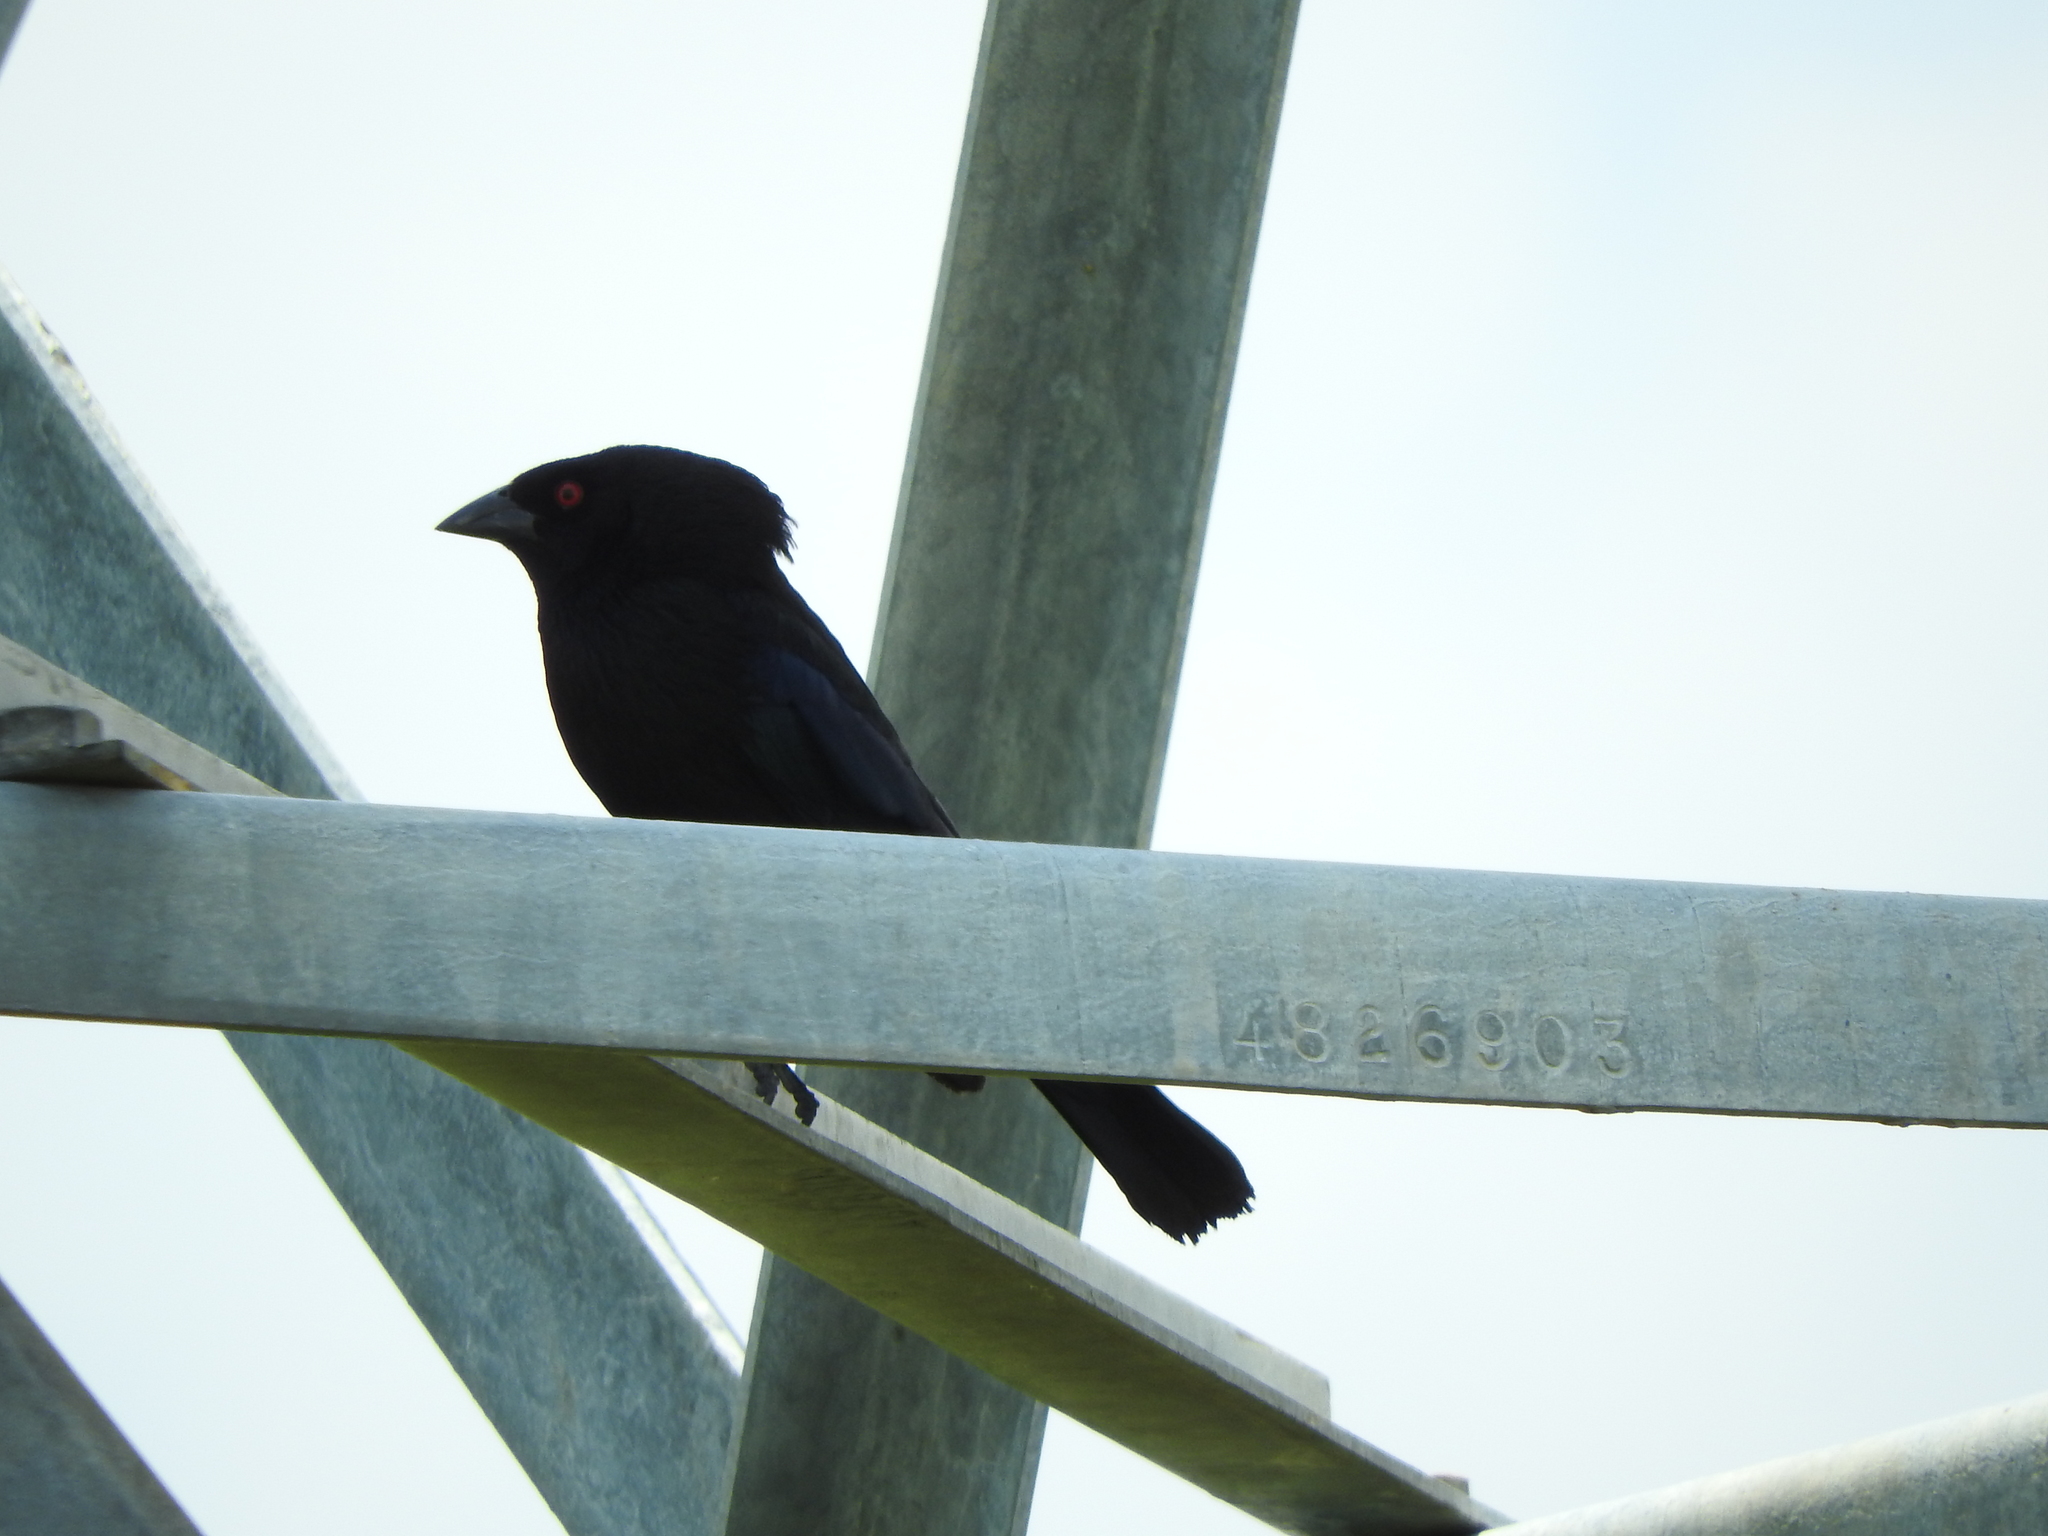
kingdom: Animalia
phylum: Chordata
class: Aves
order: Passeriformes
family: Icteridae
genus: Molothrus
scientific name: Molothrus aeneus
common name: Bronzed cowbird
